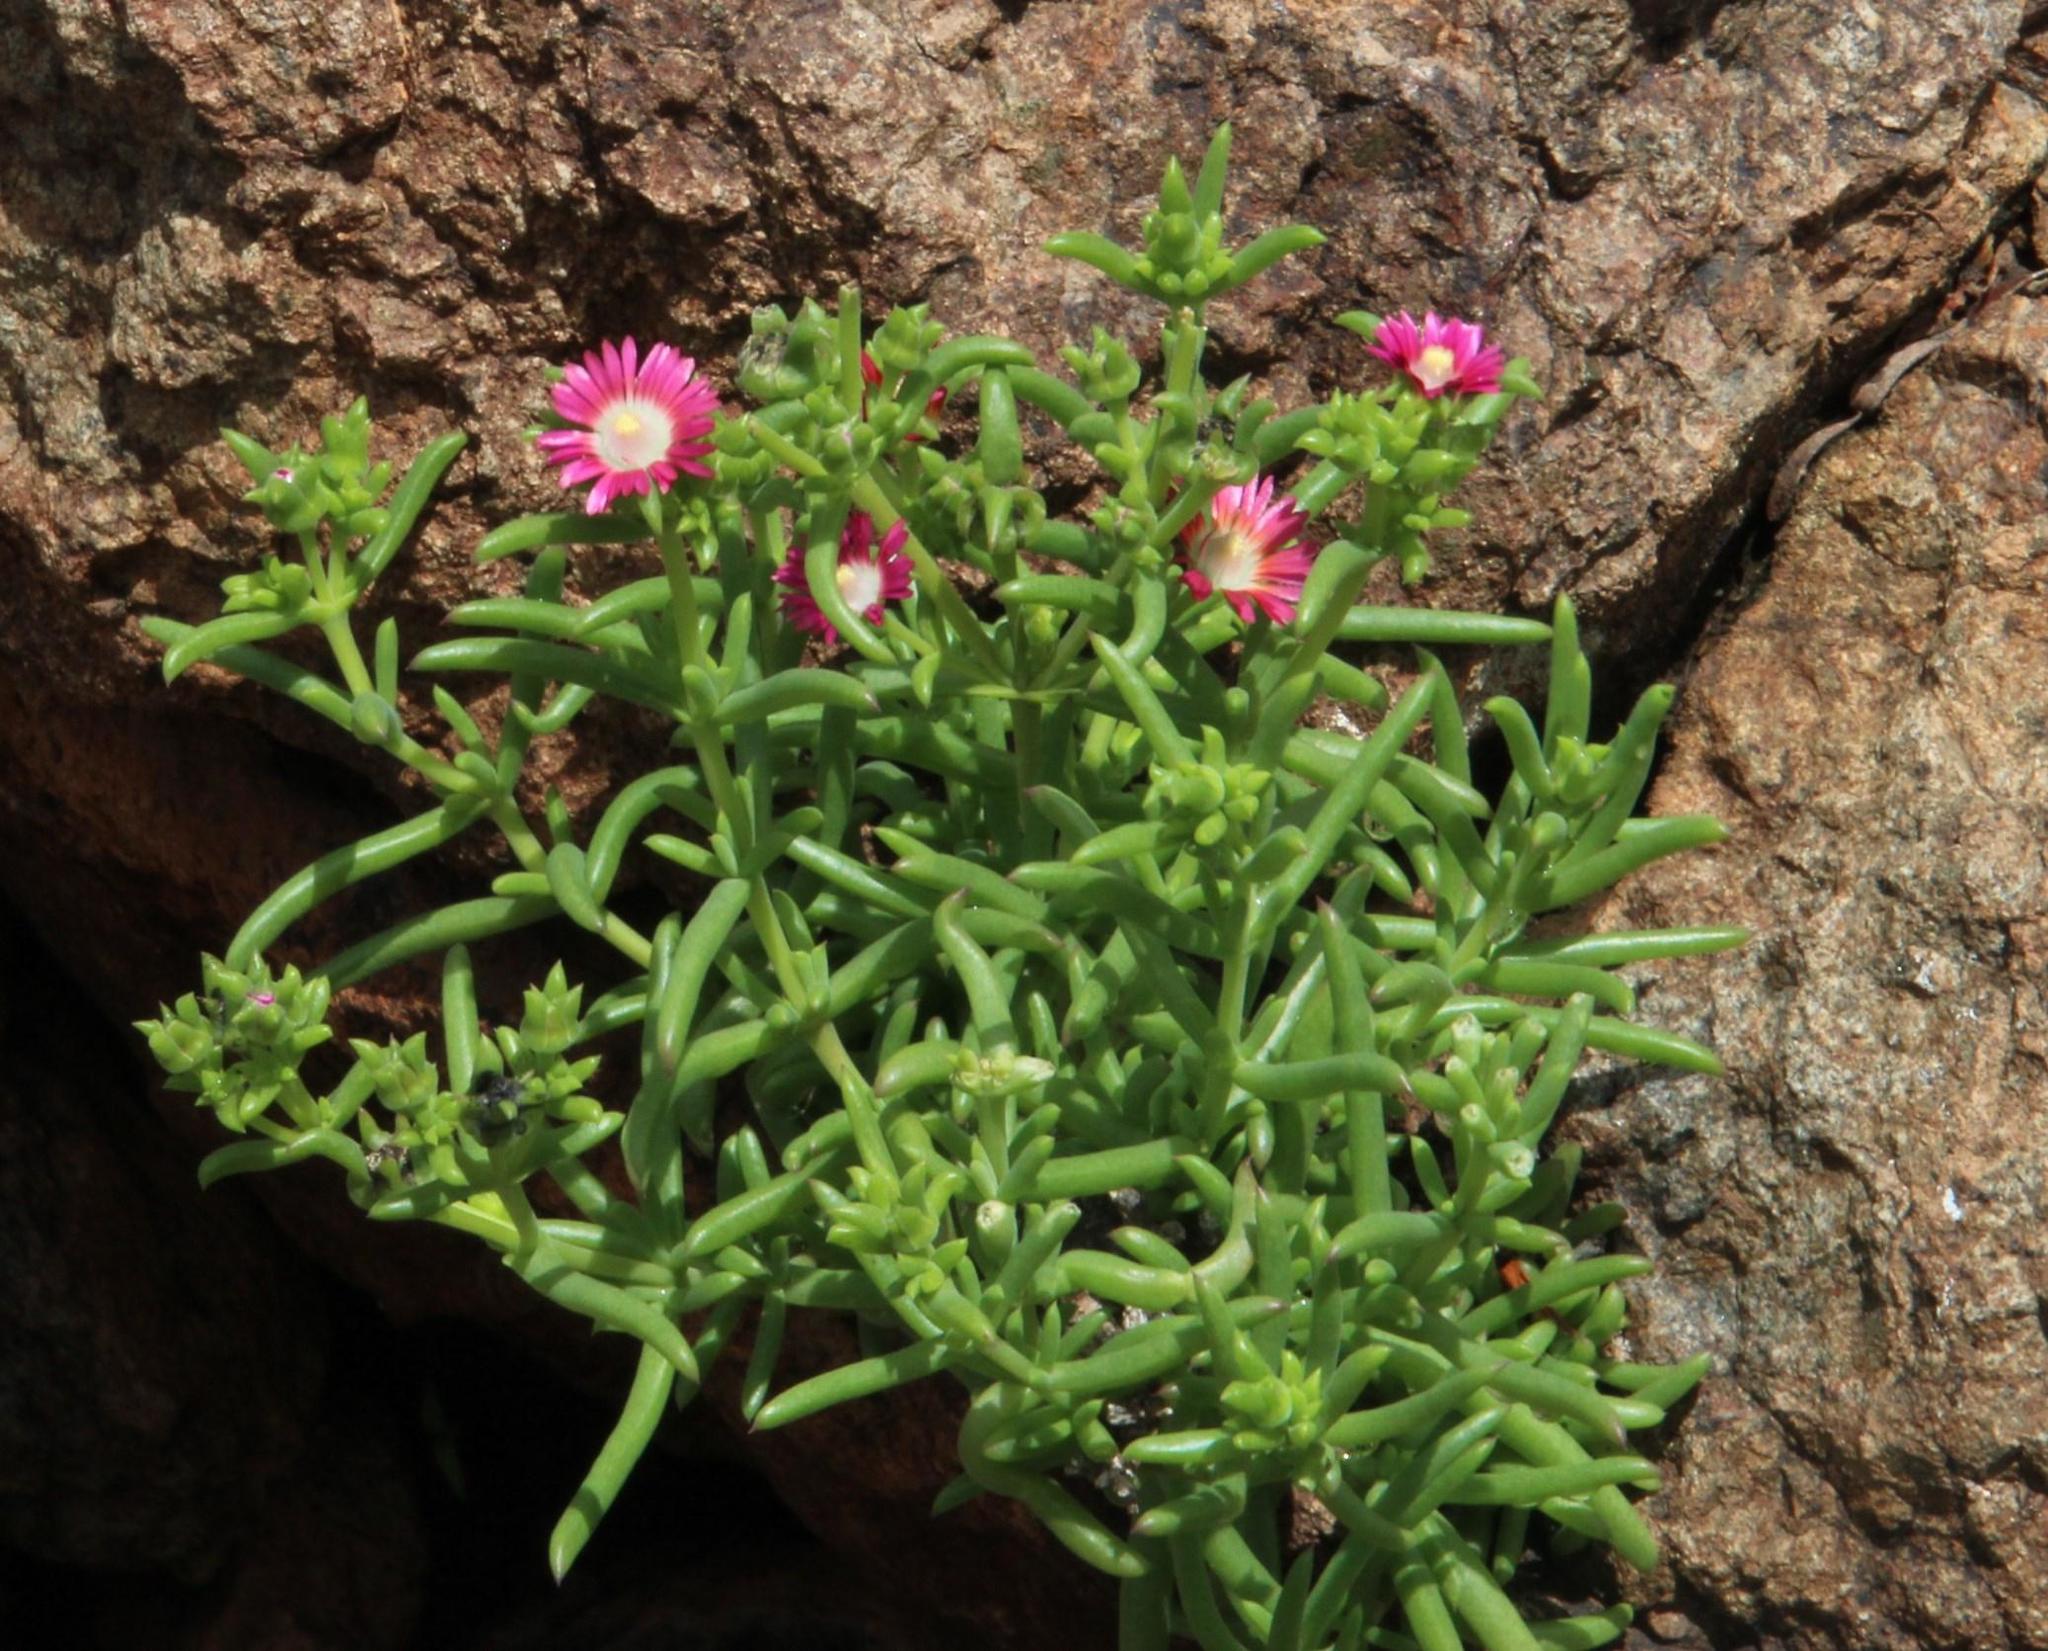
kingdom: Plantae
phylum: Tracheophyta
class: Magnoliopsida
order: Caryophyllales
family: Aizoaceae
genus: Delosperma
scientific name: Delosperma multiflorum
